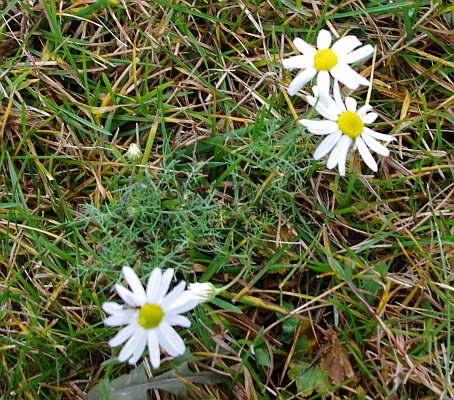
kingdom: Plantae
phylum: Tracheophyta
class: Magnoliopsida
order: Asterales
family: Asteraceae
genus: Tripleurospermum
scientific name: Tripleurospermum inodorum
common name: Scentless mayweed
